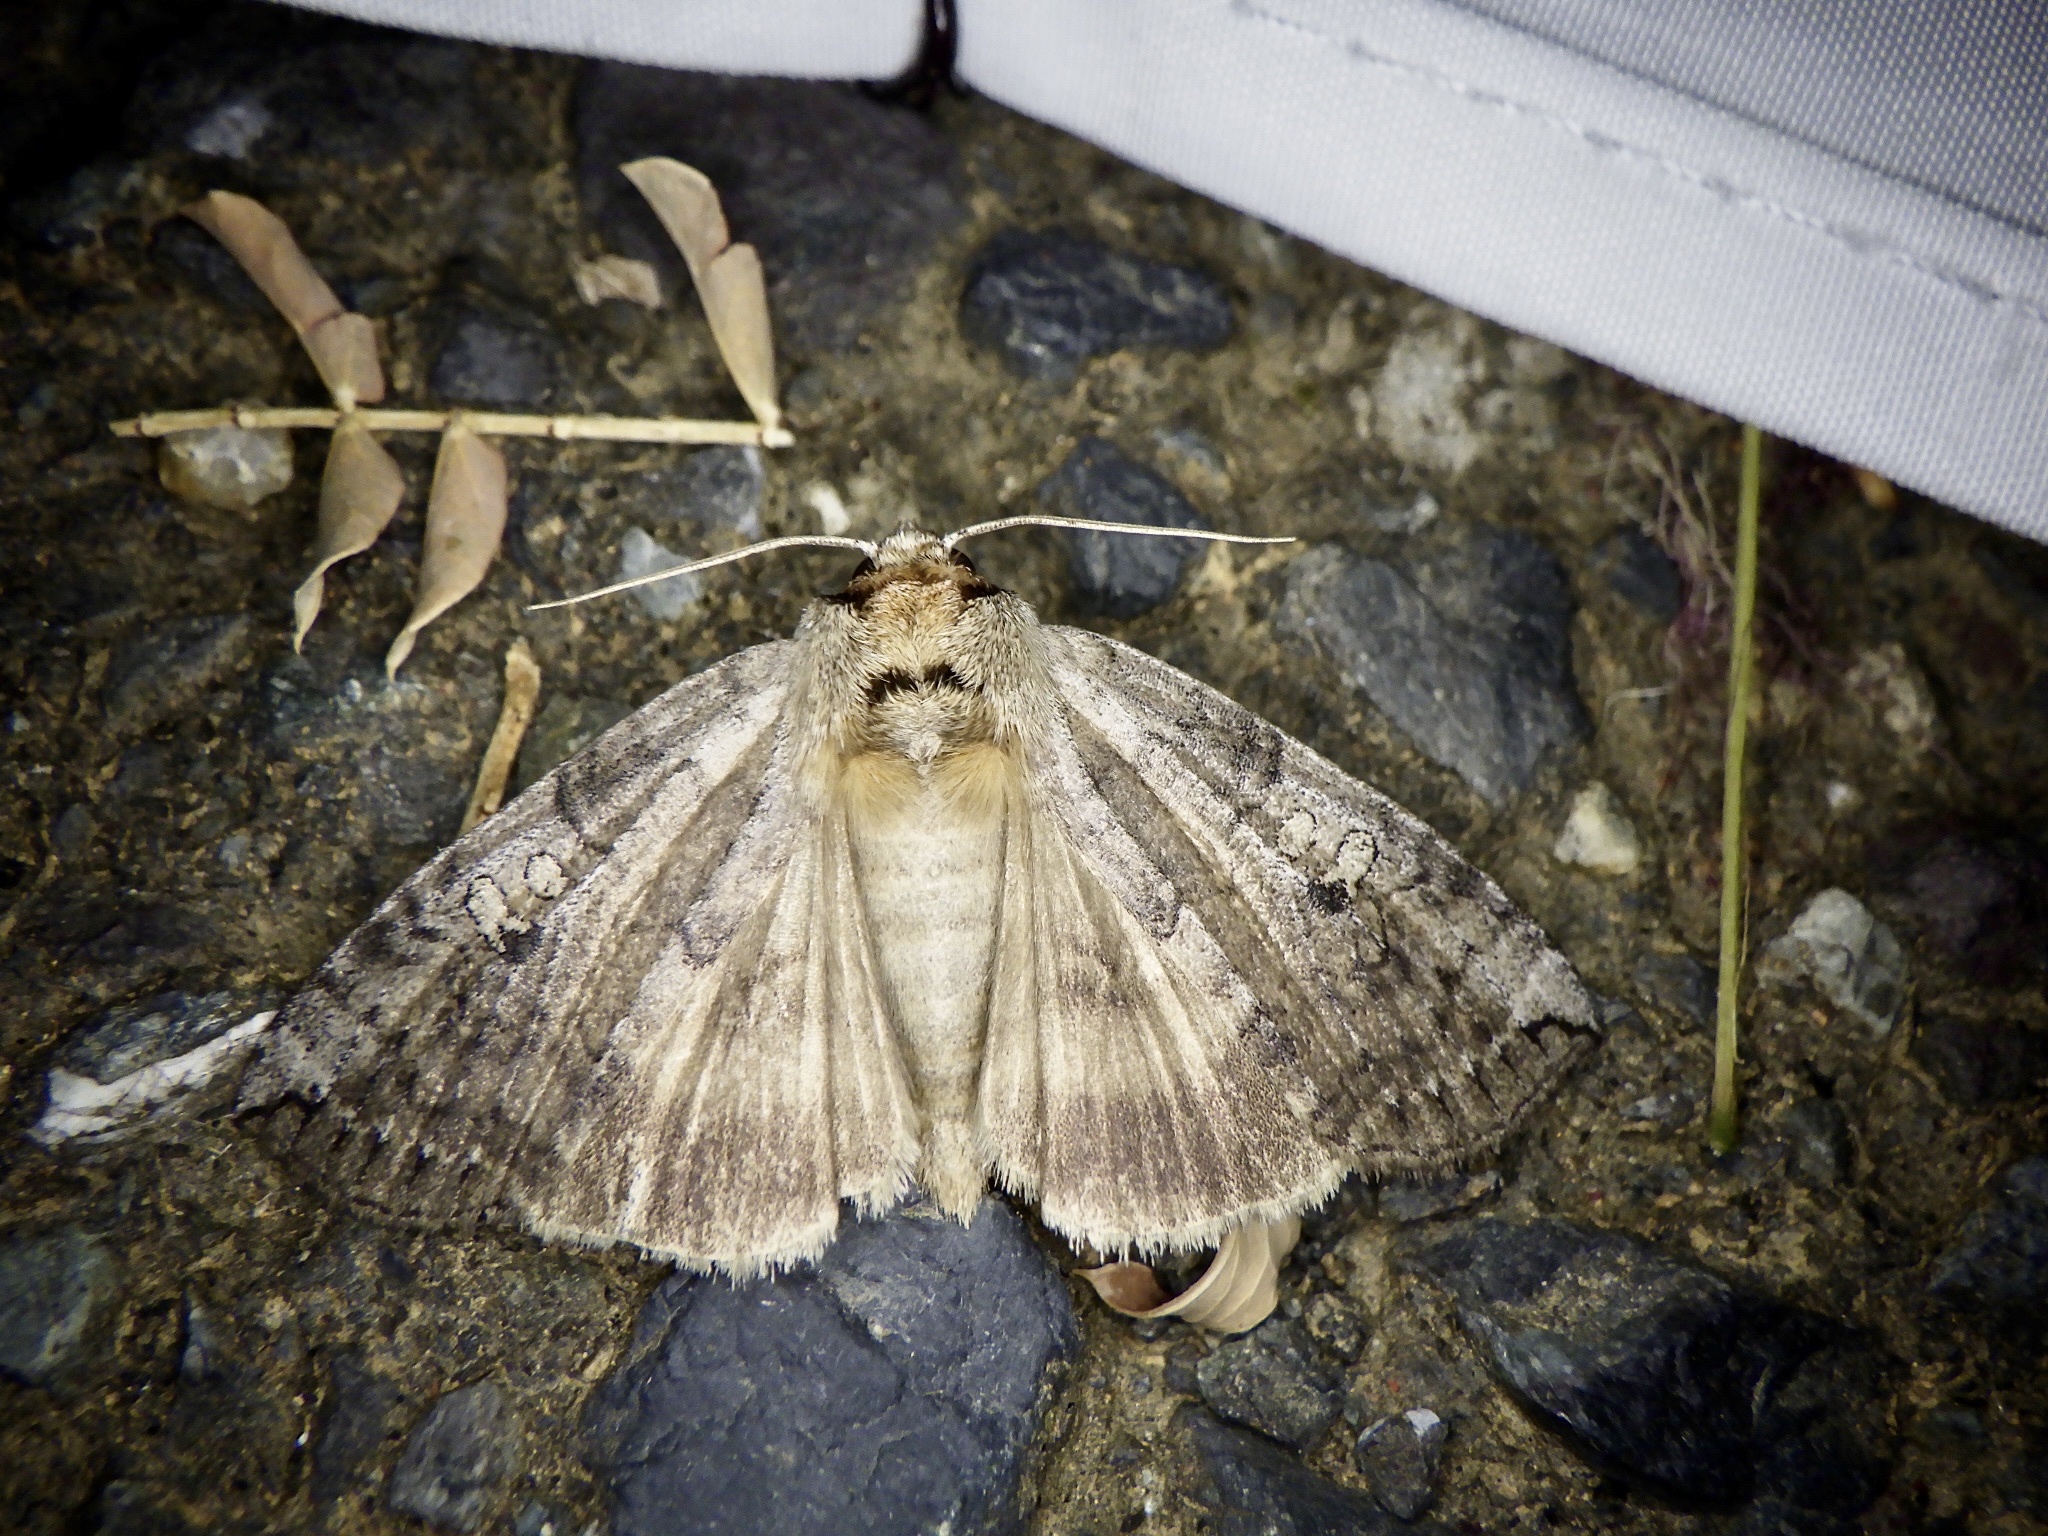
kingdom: Animalia
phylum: Arthropoda
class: Insecta
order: Lepidoptera
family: Drepanidae
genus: Tethea
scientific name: Tethea intensa
